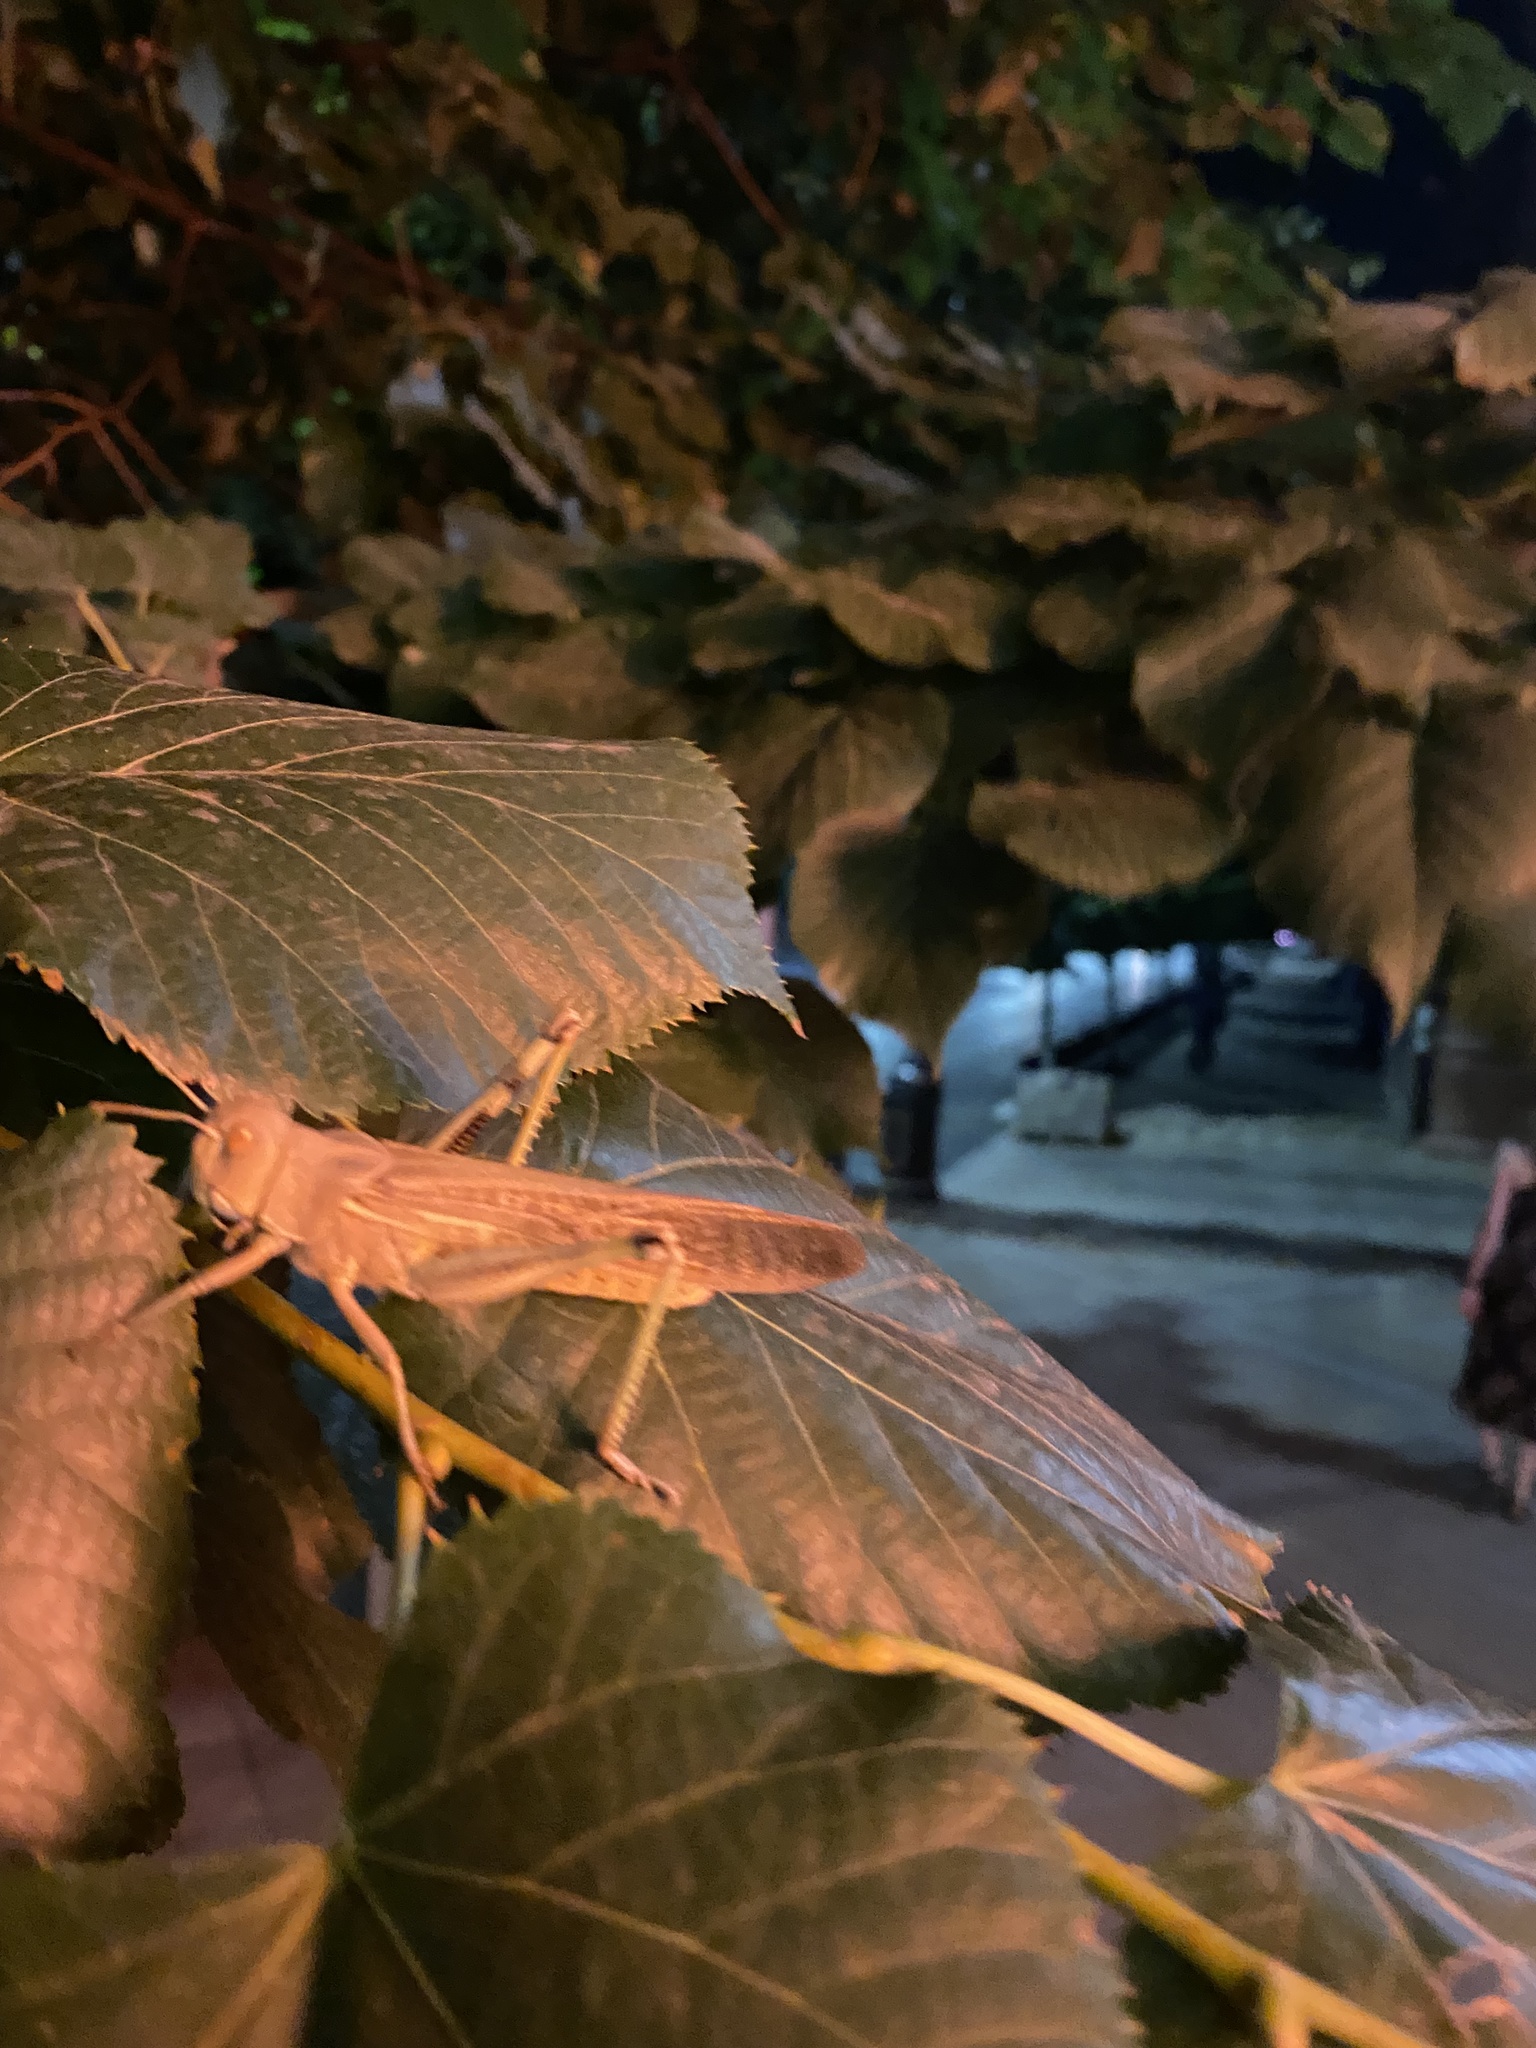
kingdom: Animalia
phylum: Arthropoda
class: Insecta
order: Orthoptera
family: Acrididae
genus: Locusta
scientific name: Locusta migratoria
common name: Migratory locust
